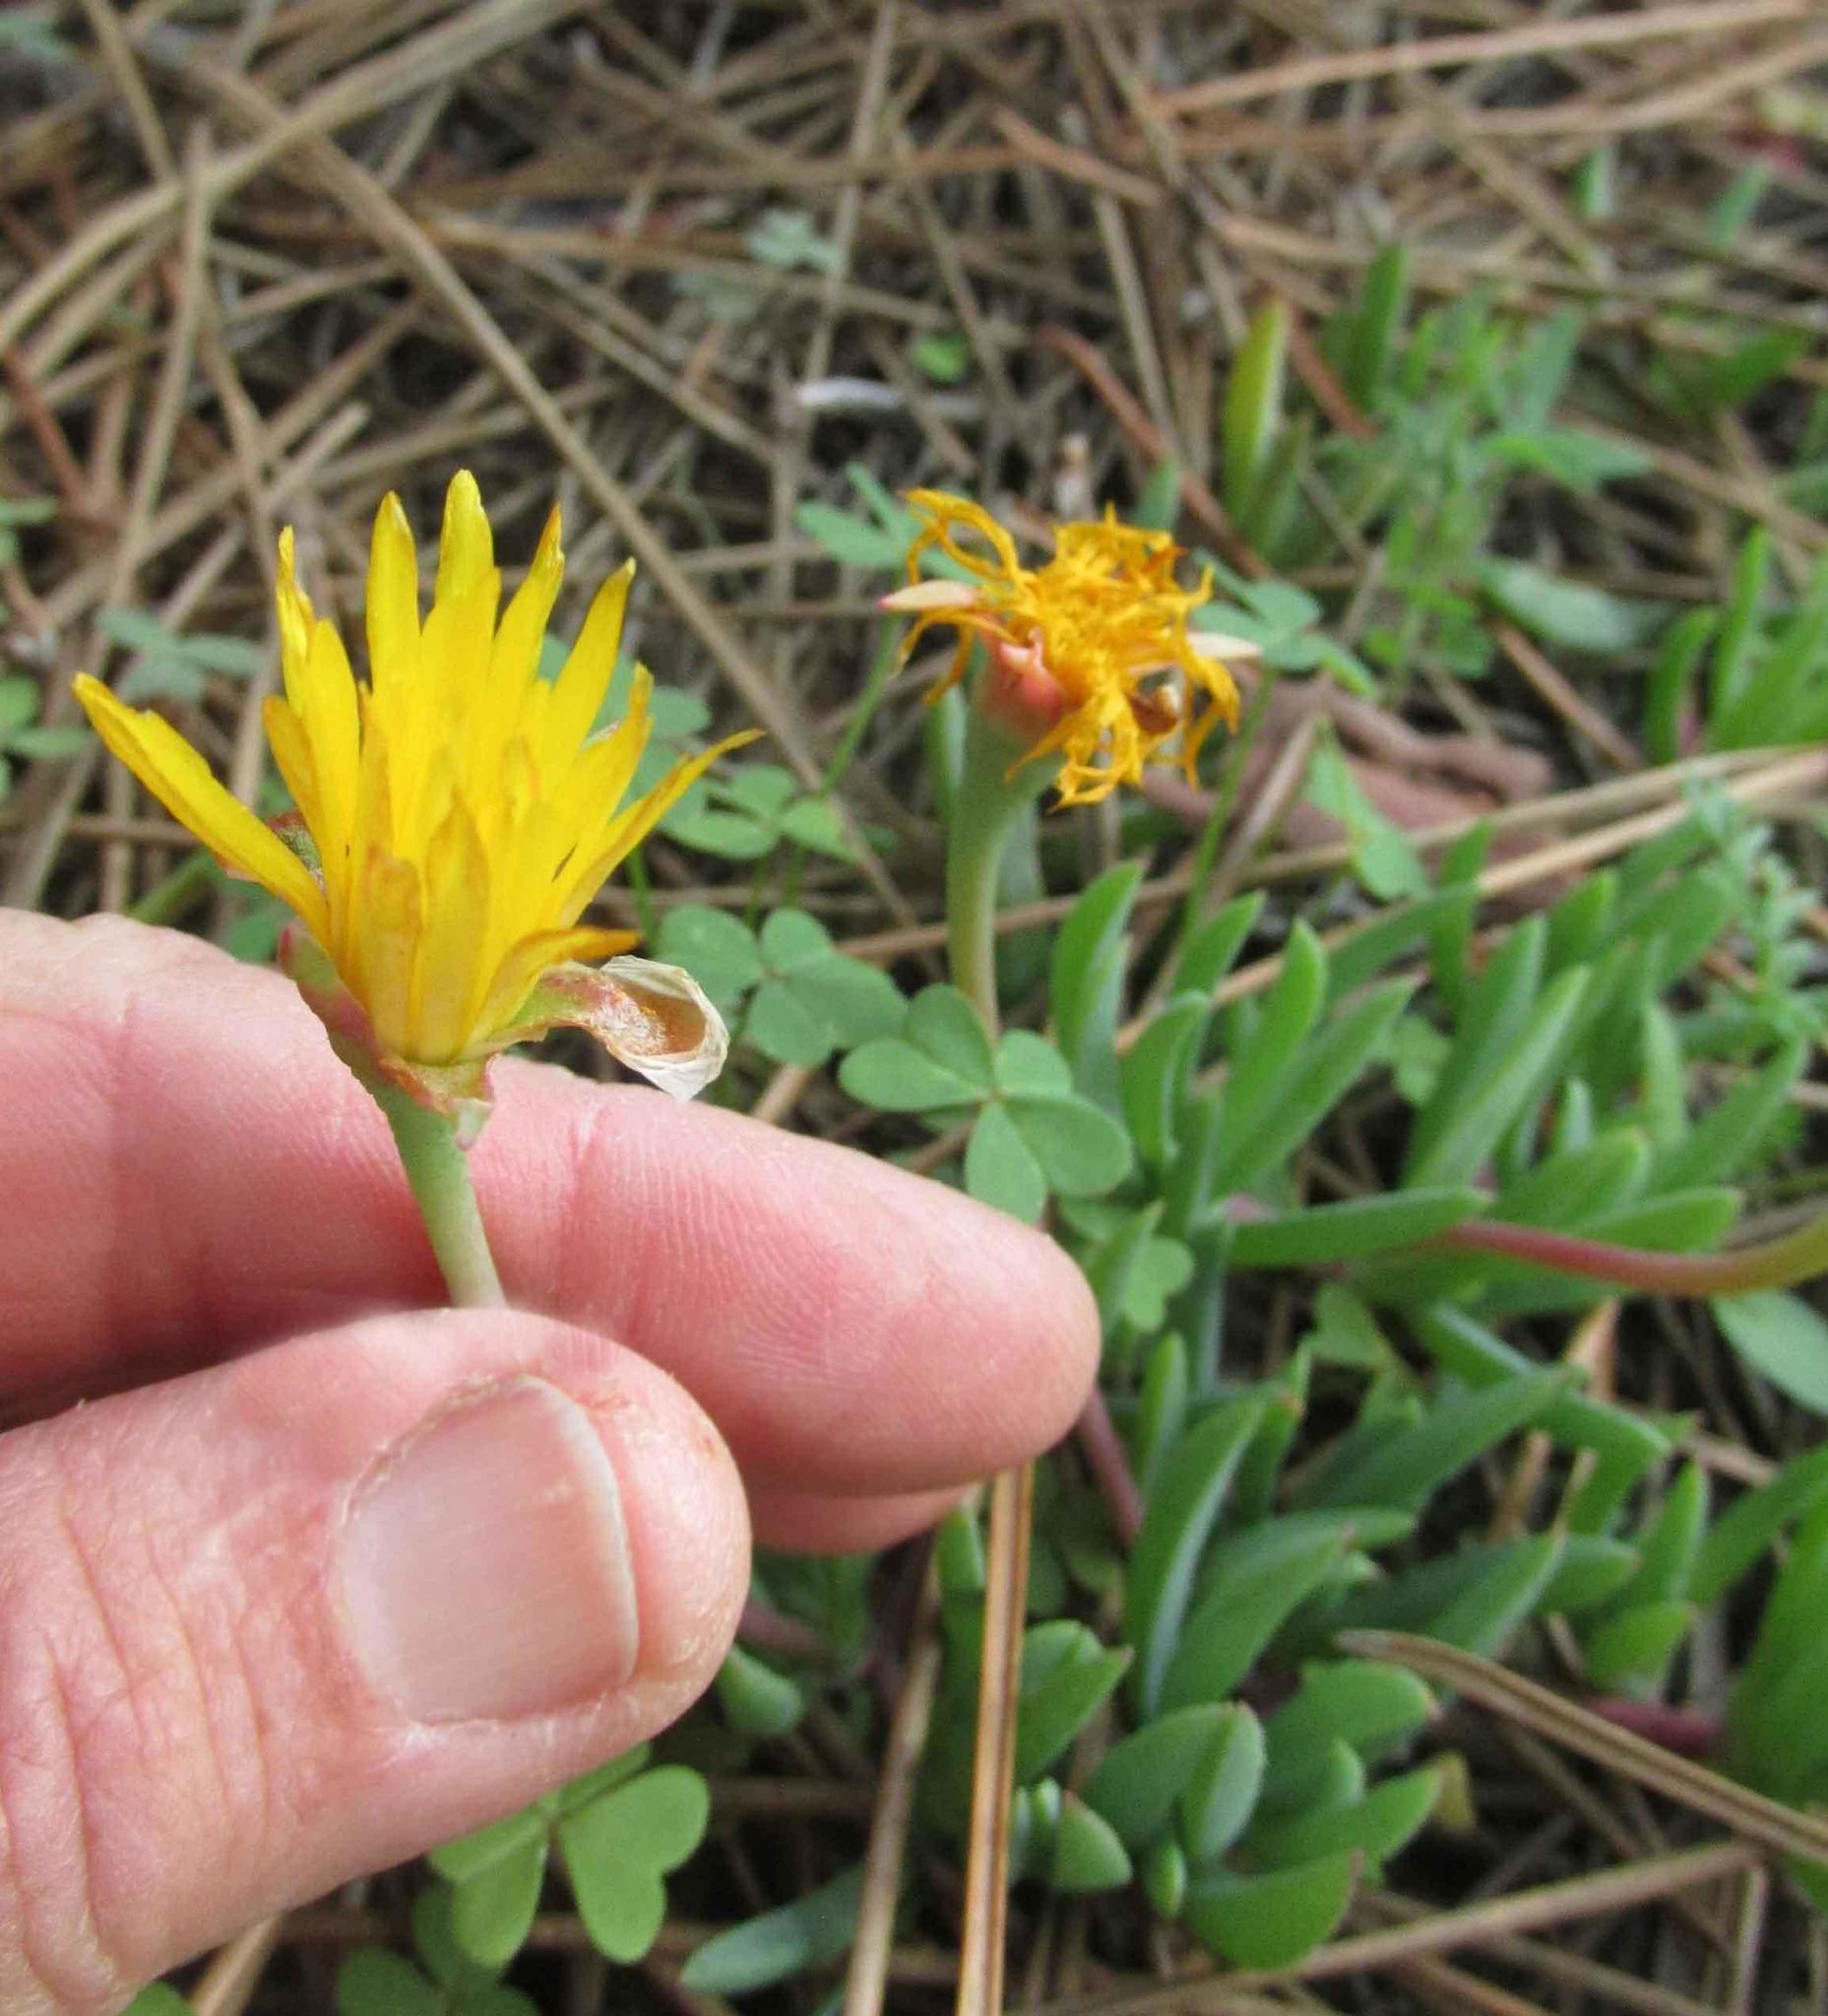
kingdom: Plantae
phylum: Tracheophyta
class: Magnoliopsida
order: Caryophyllales
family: Aizoaceae
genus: Lampranthus
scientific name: Lampranthus reptans
